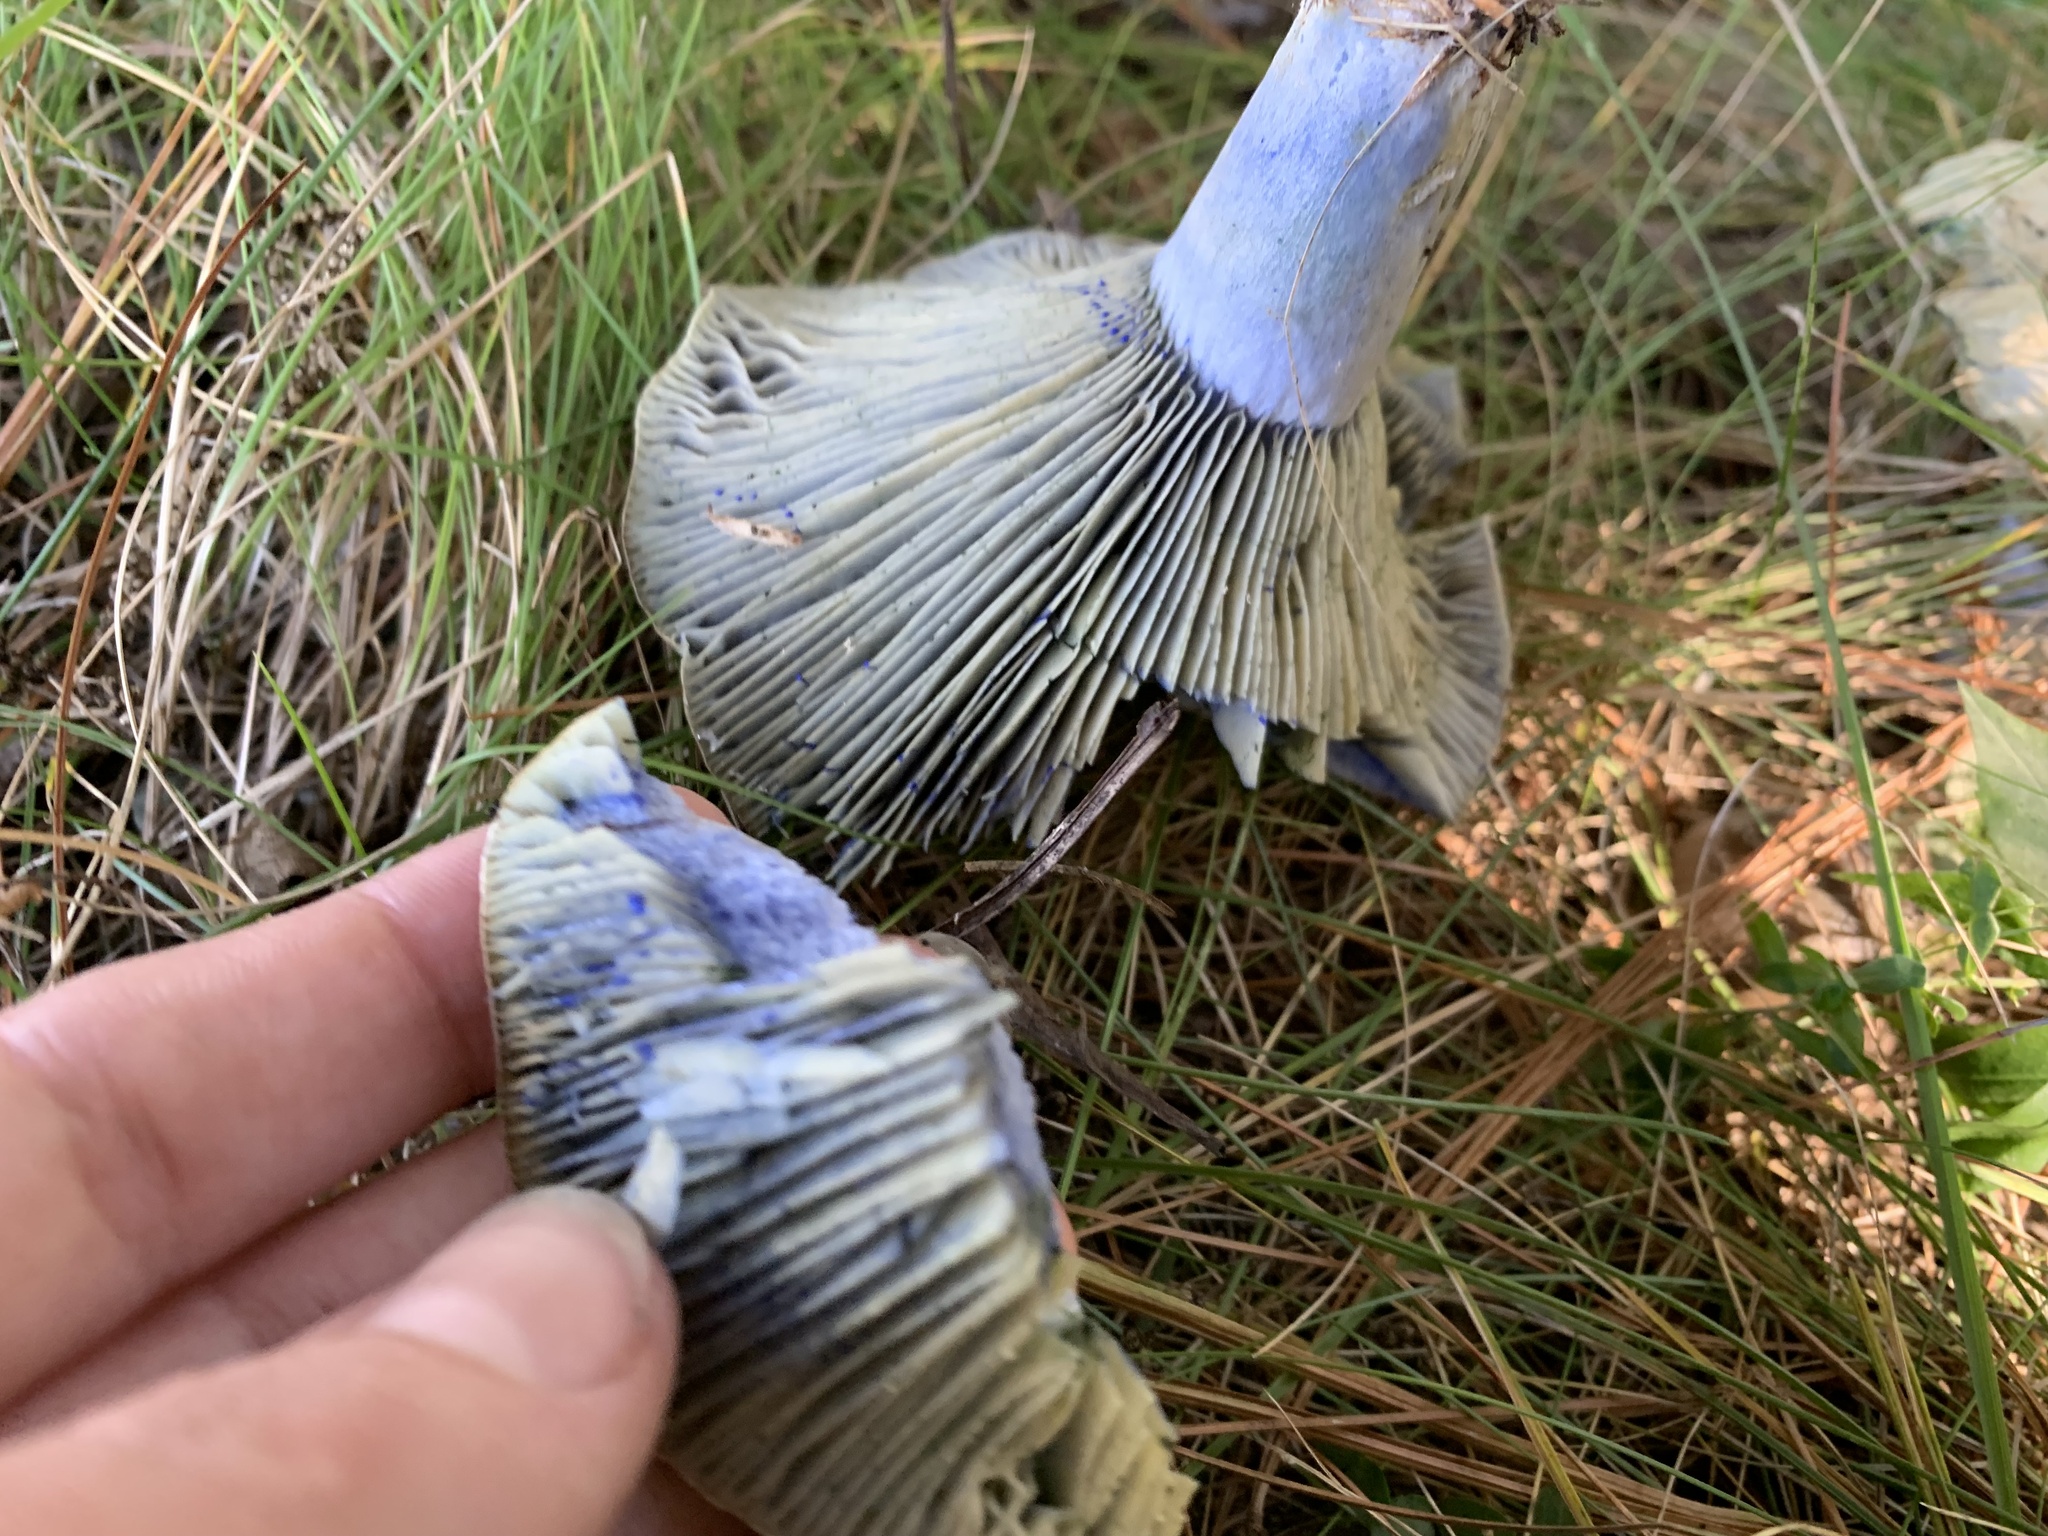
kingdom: Fungi
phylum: Basidiomycota
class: Agaricomycetes
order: Russulales
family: Russulaceae
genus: Lactarius
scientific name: Lactarius indigo
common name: Indigo milk cap
